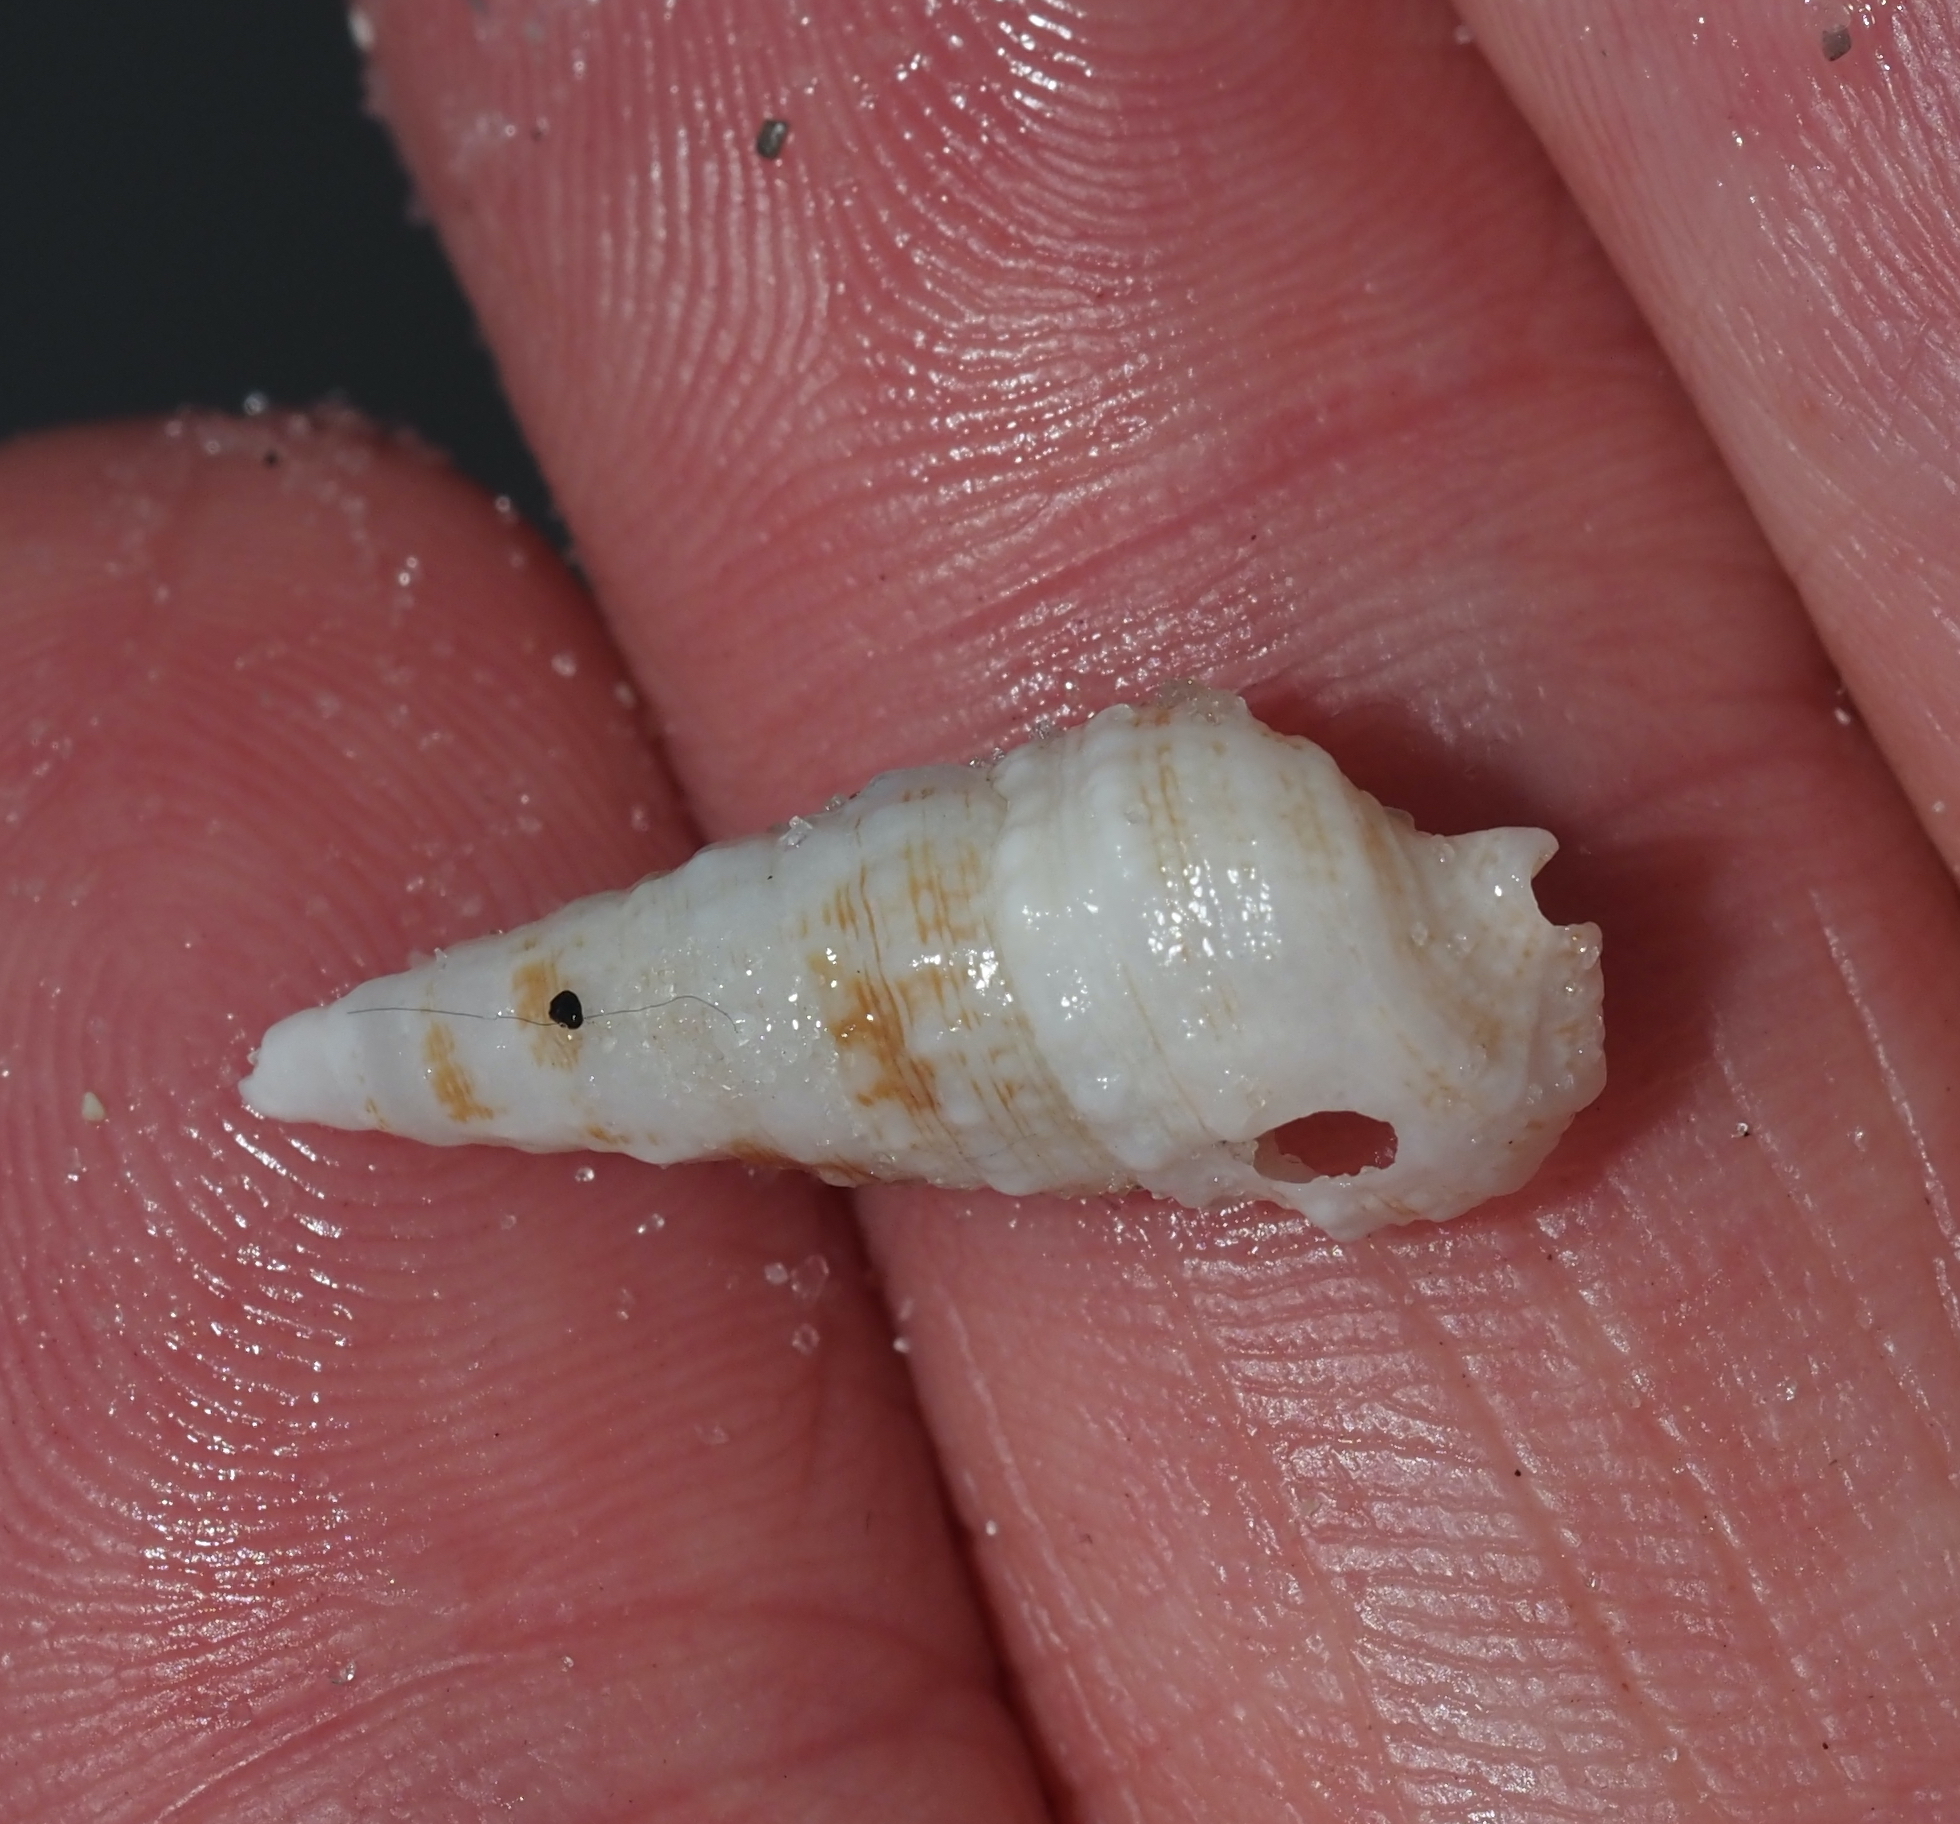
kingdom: Animalia
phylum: Mollusca
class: Gastropoda
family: Cerithiidae
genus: Cerithium
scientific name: Cerithium atratum
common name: Dark cerith
